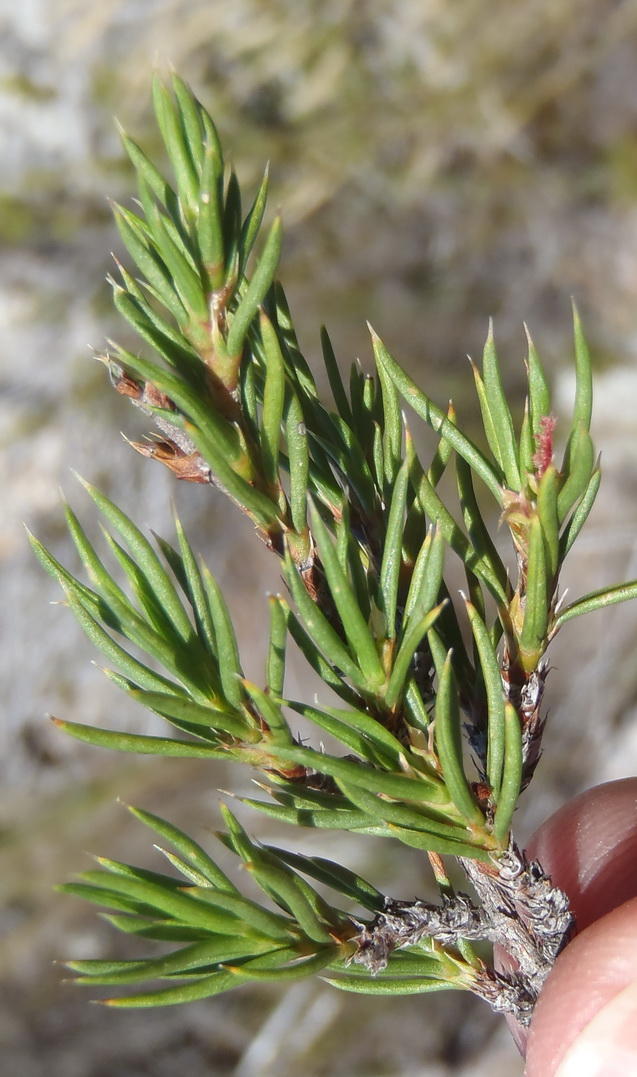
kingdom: Plantae
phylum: Tracheophyta
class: Magnoliopsida
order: Rosales
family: Rosaceae
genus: Cliffortia
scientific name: Cliffortia neglecta
